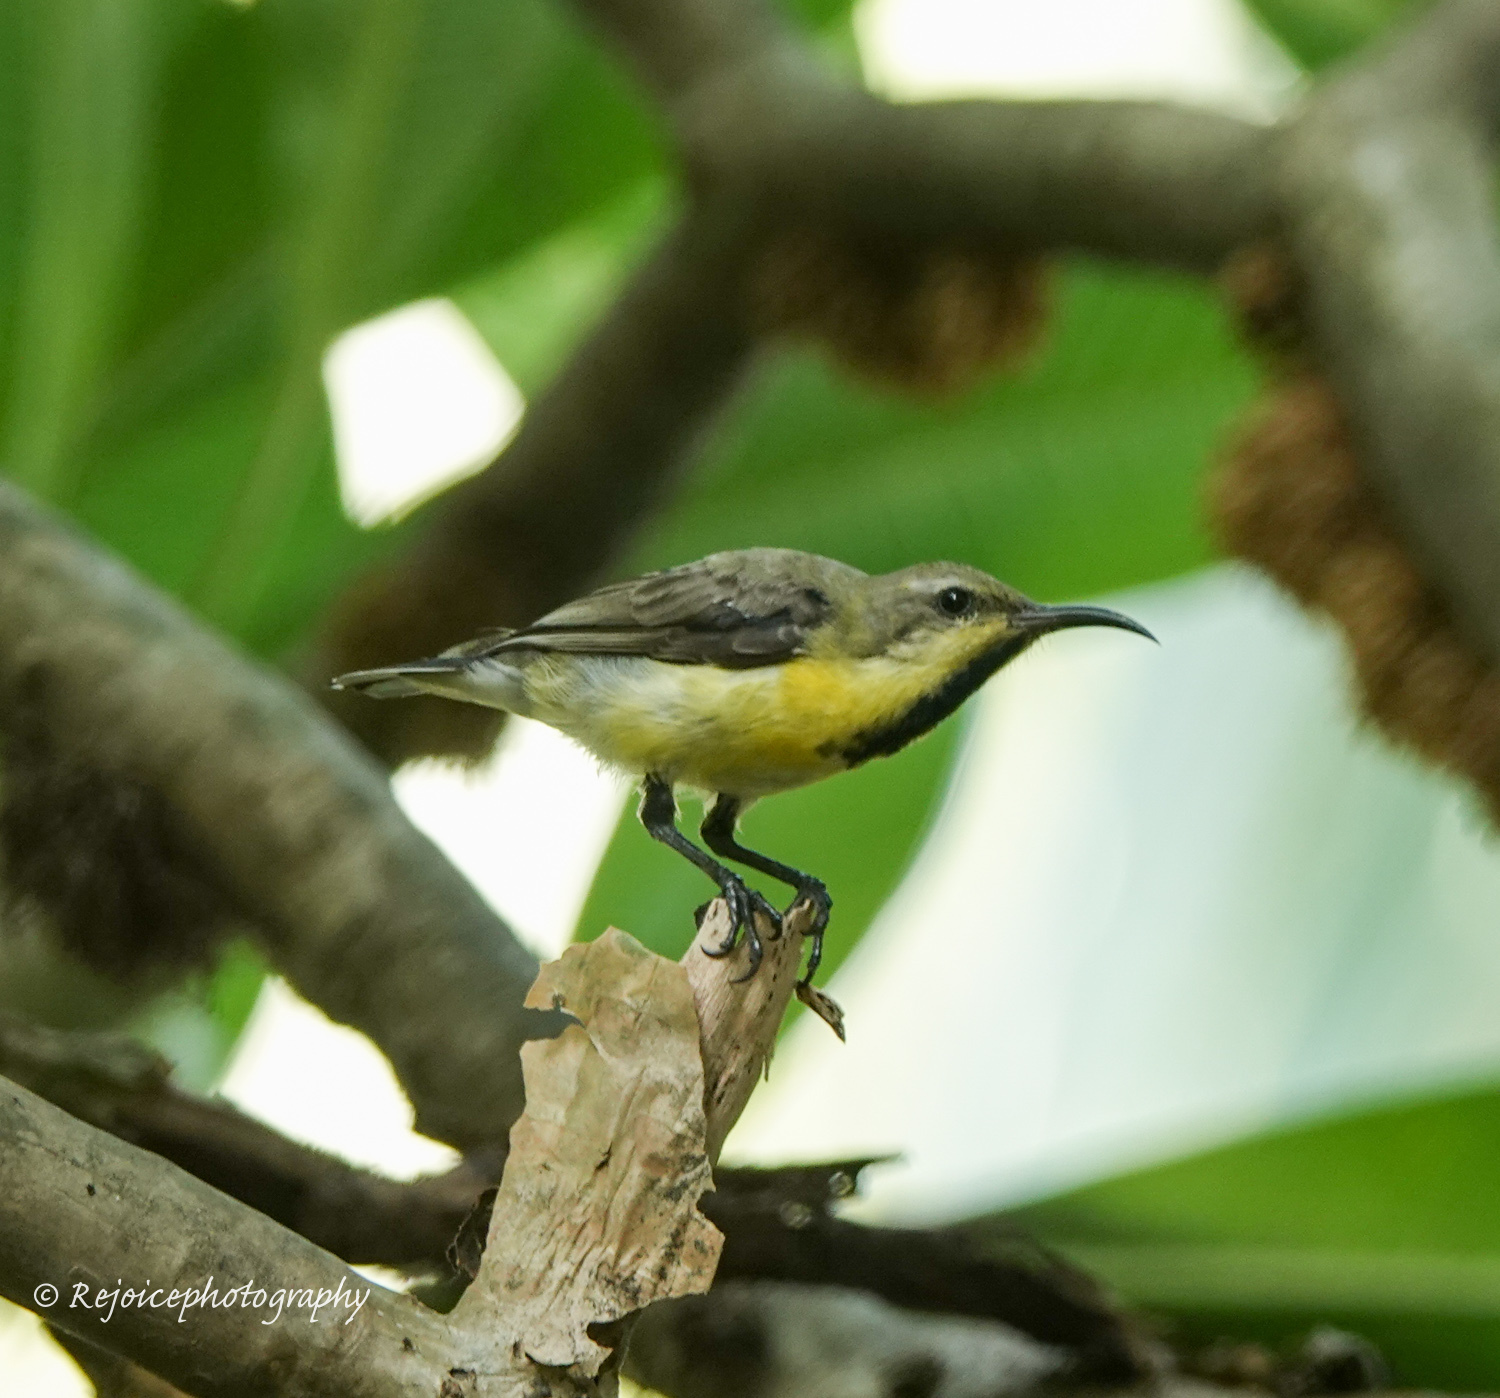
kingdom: Animalia
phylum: Chordata
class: Aves
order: Passeriformes
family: Nectariniidae
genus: Cinnyris
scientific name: Cinnyris asiaticus
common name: Purple sunbird
